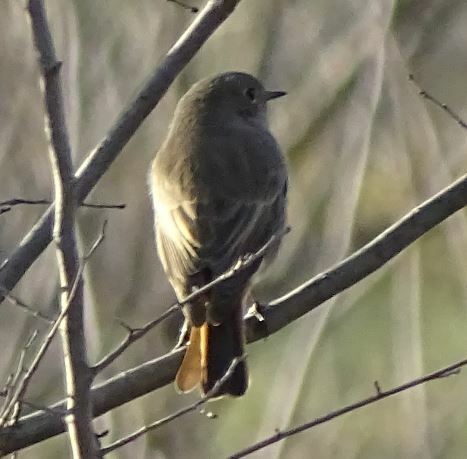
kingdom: Animalia
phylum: Chordata
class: Aves
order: Passeriformes
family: Muscicapidae
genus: Phoenicurus
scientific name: Phoenicurus ochruros
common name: Black redstart
